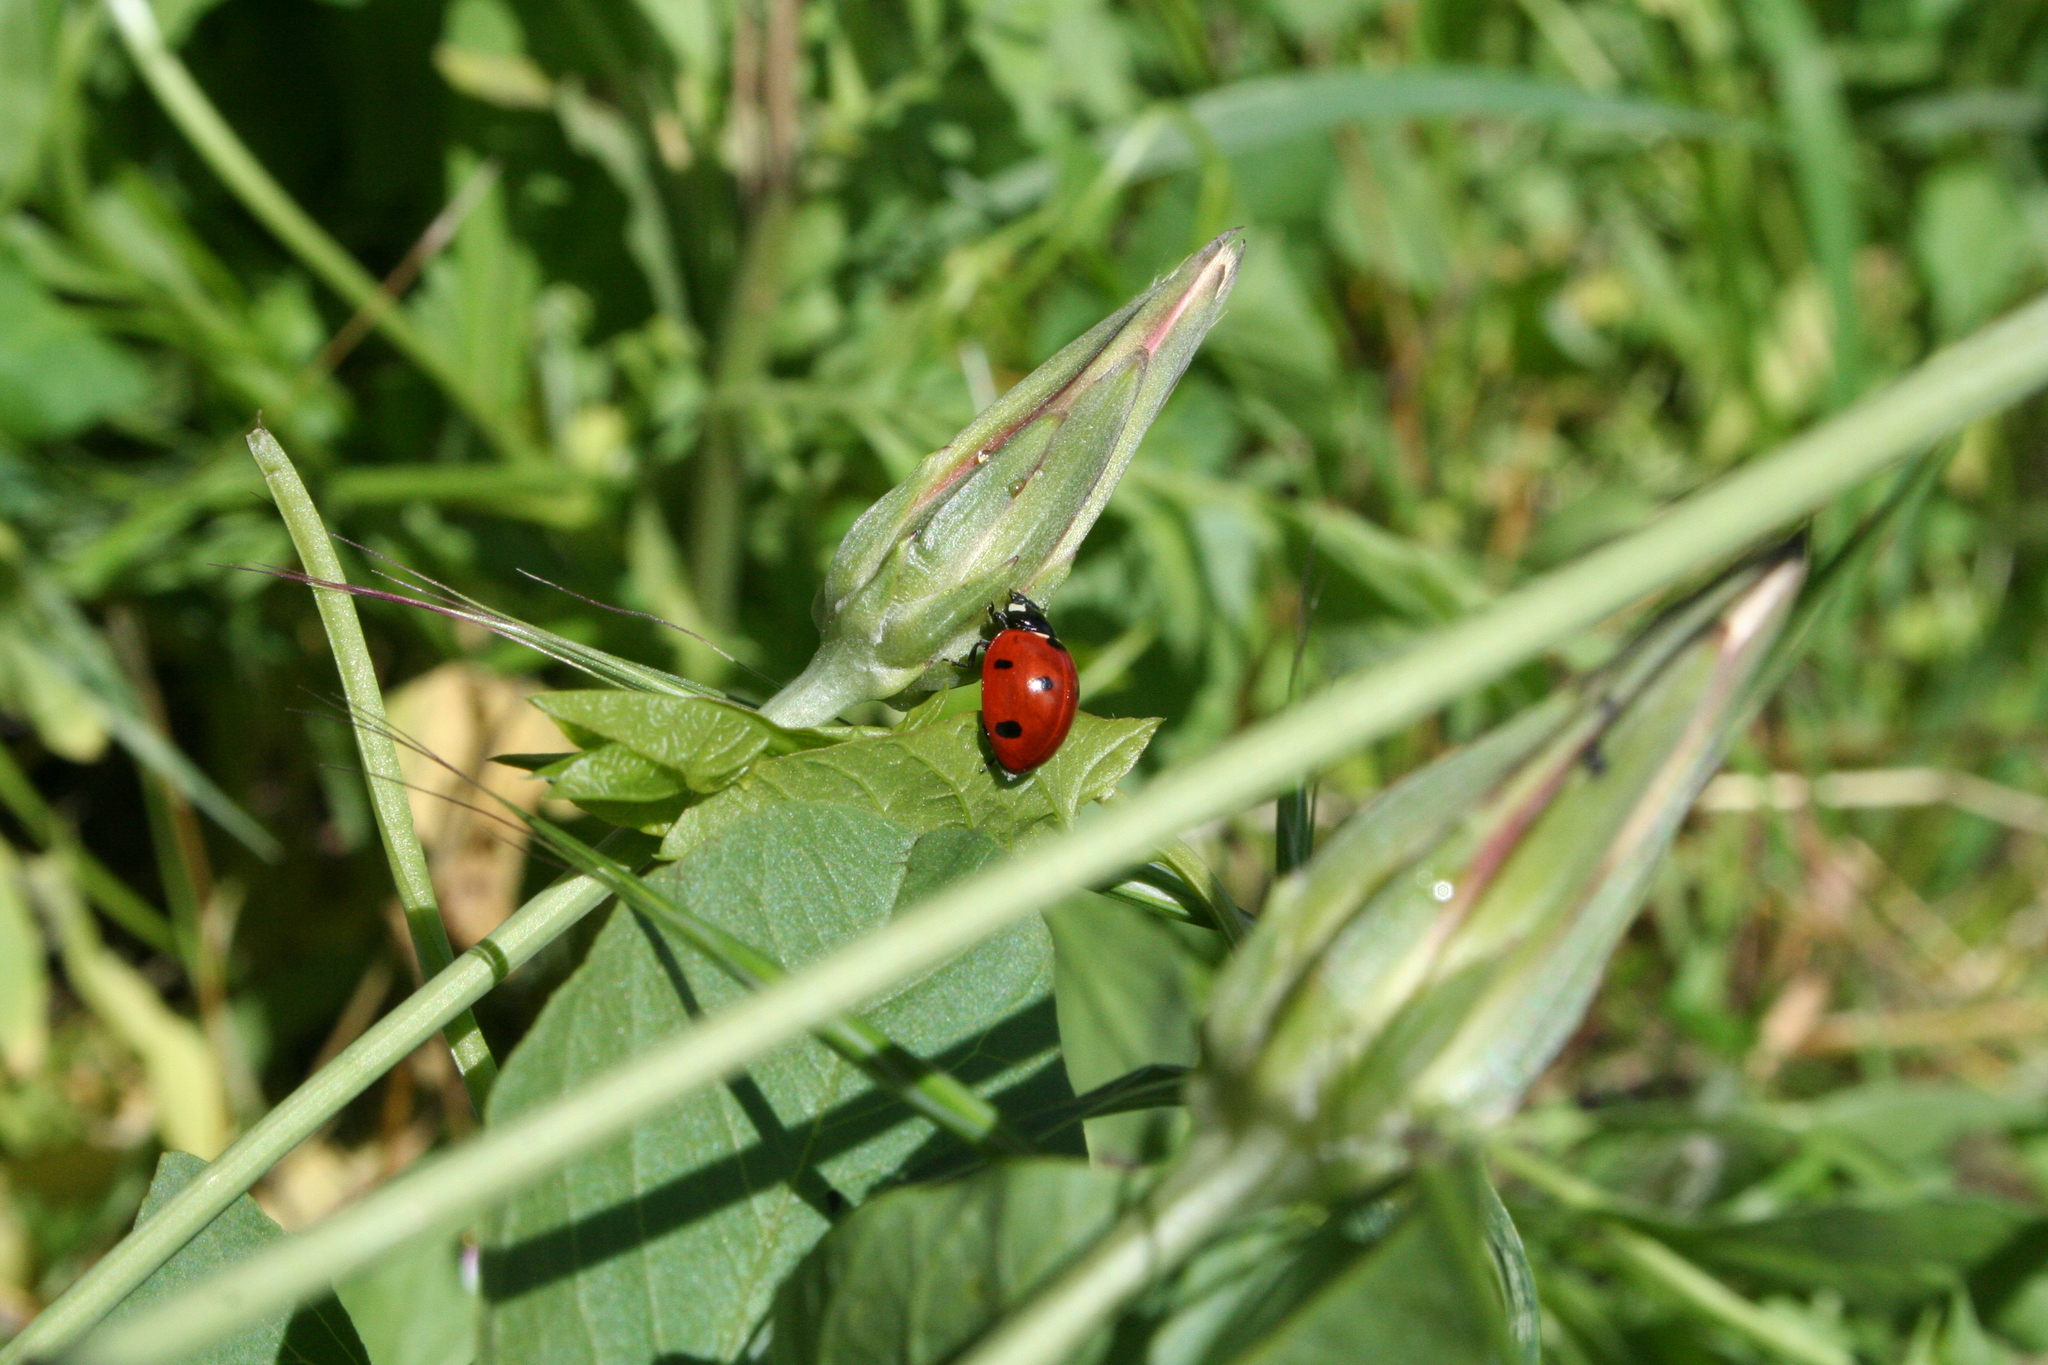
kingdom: Animalia
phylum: Arthropoda
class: Insecta
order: Coleoptera
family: Coccinellidae
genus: Coccinella
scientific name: Coccinella septempunctata
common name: Sevenspotted lady beetle
